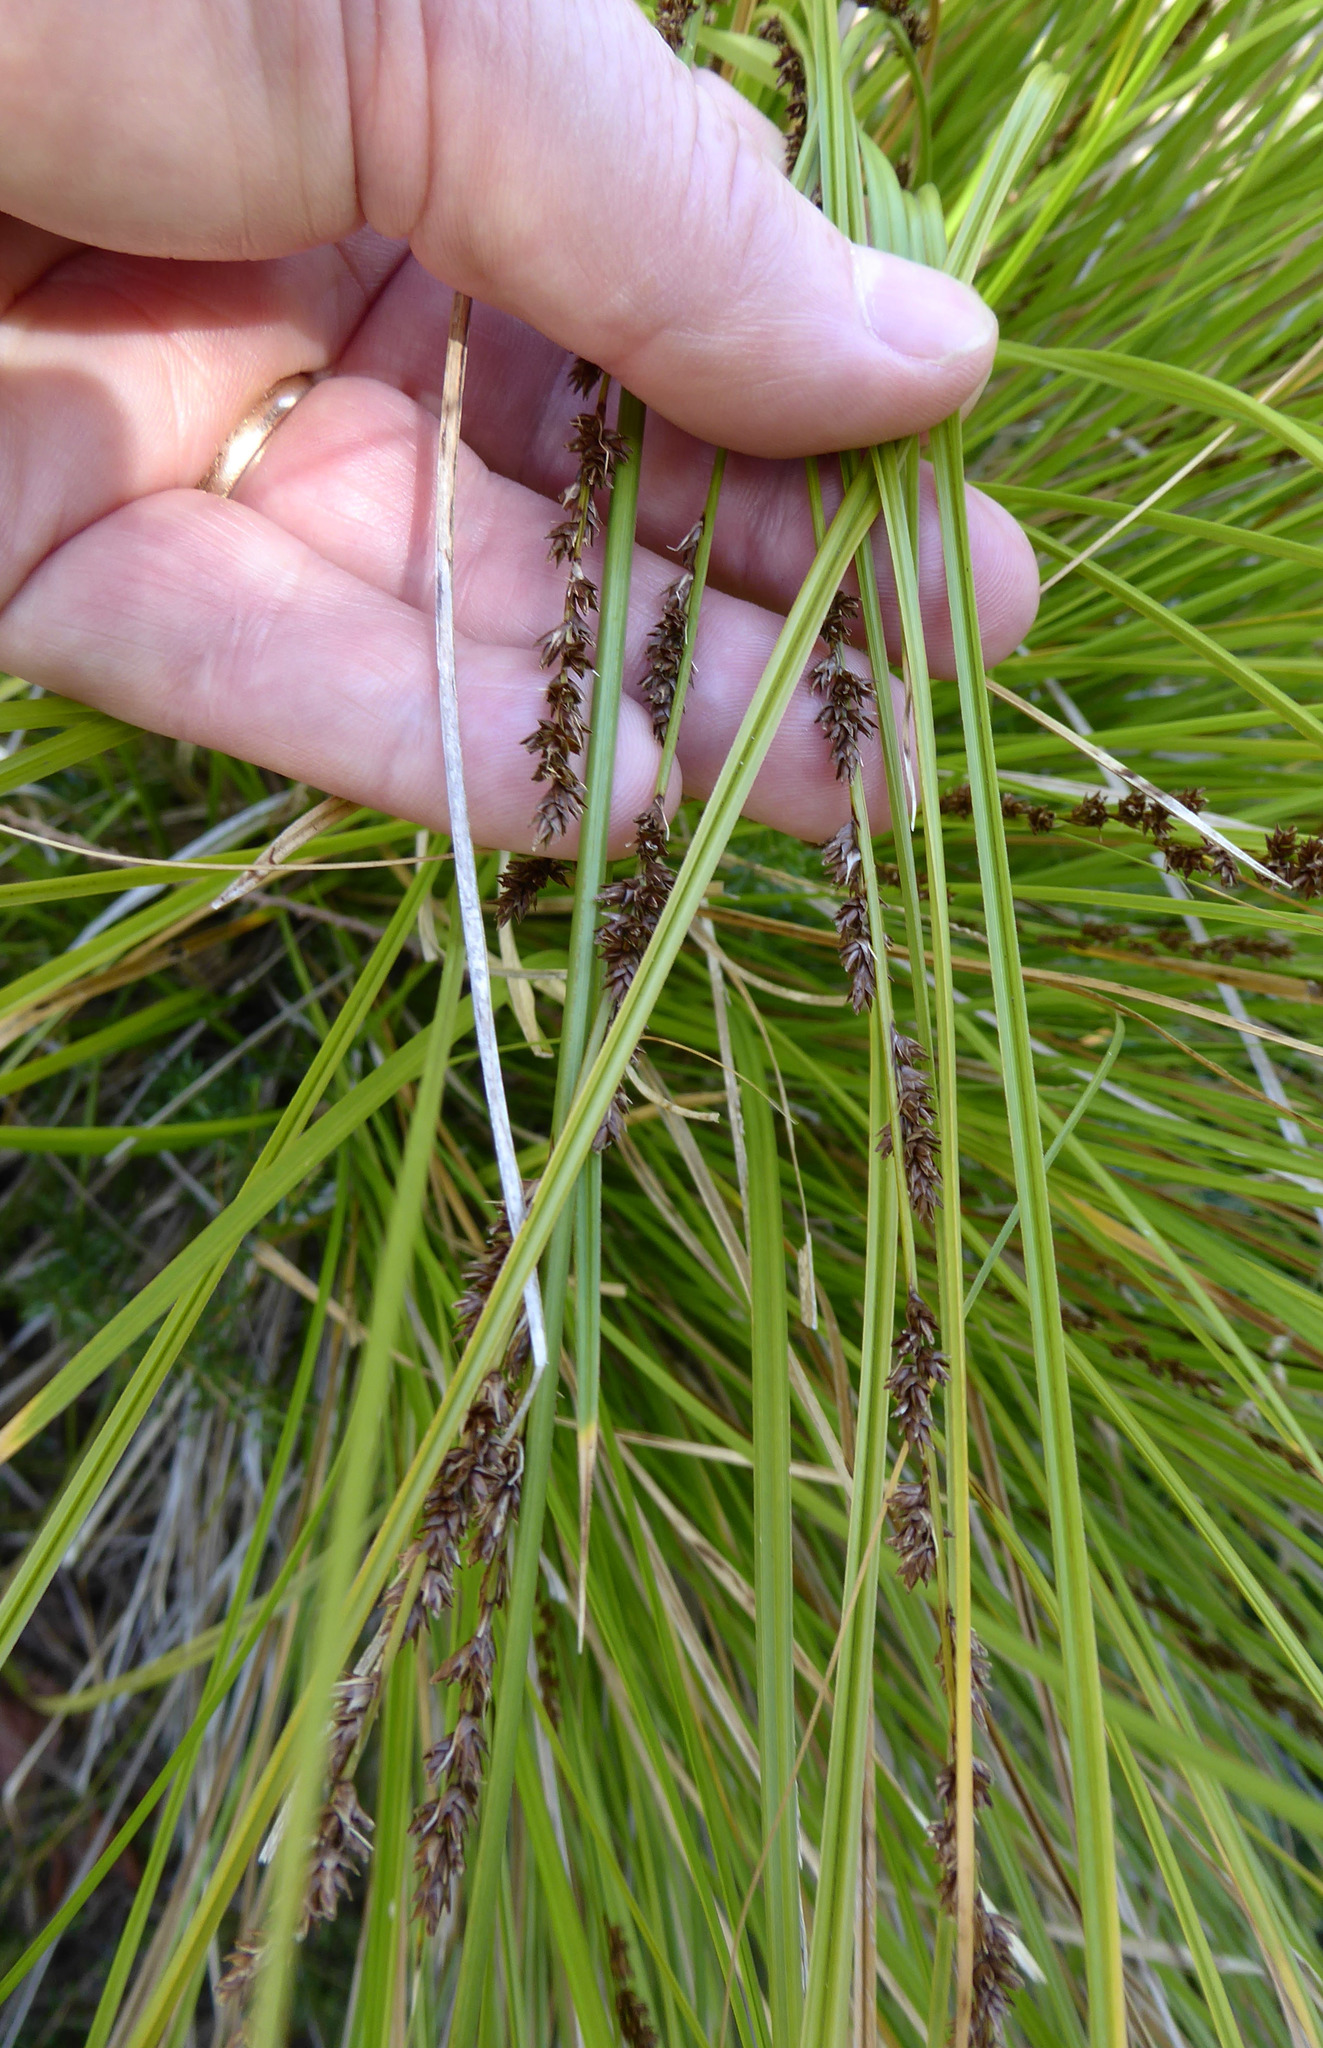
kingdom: Plantae
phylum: Tracheophyta
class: Liliopsida
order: Poales
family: Cyperaceae
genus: Carex
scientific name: Carex virgata
